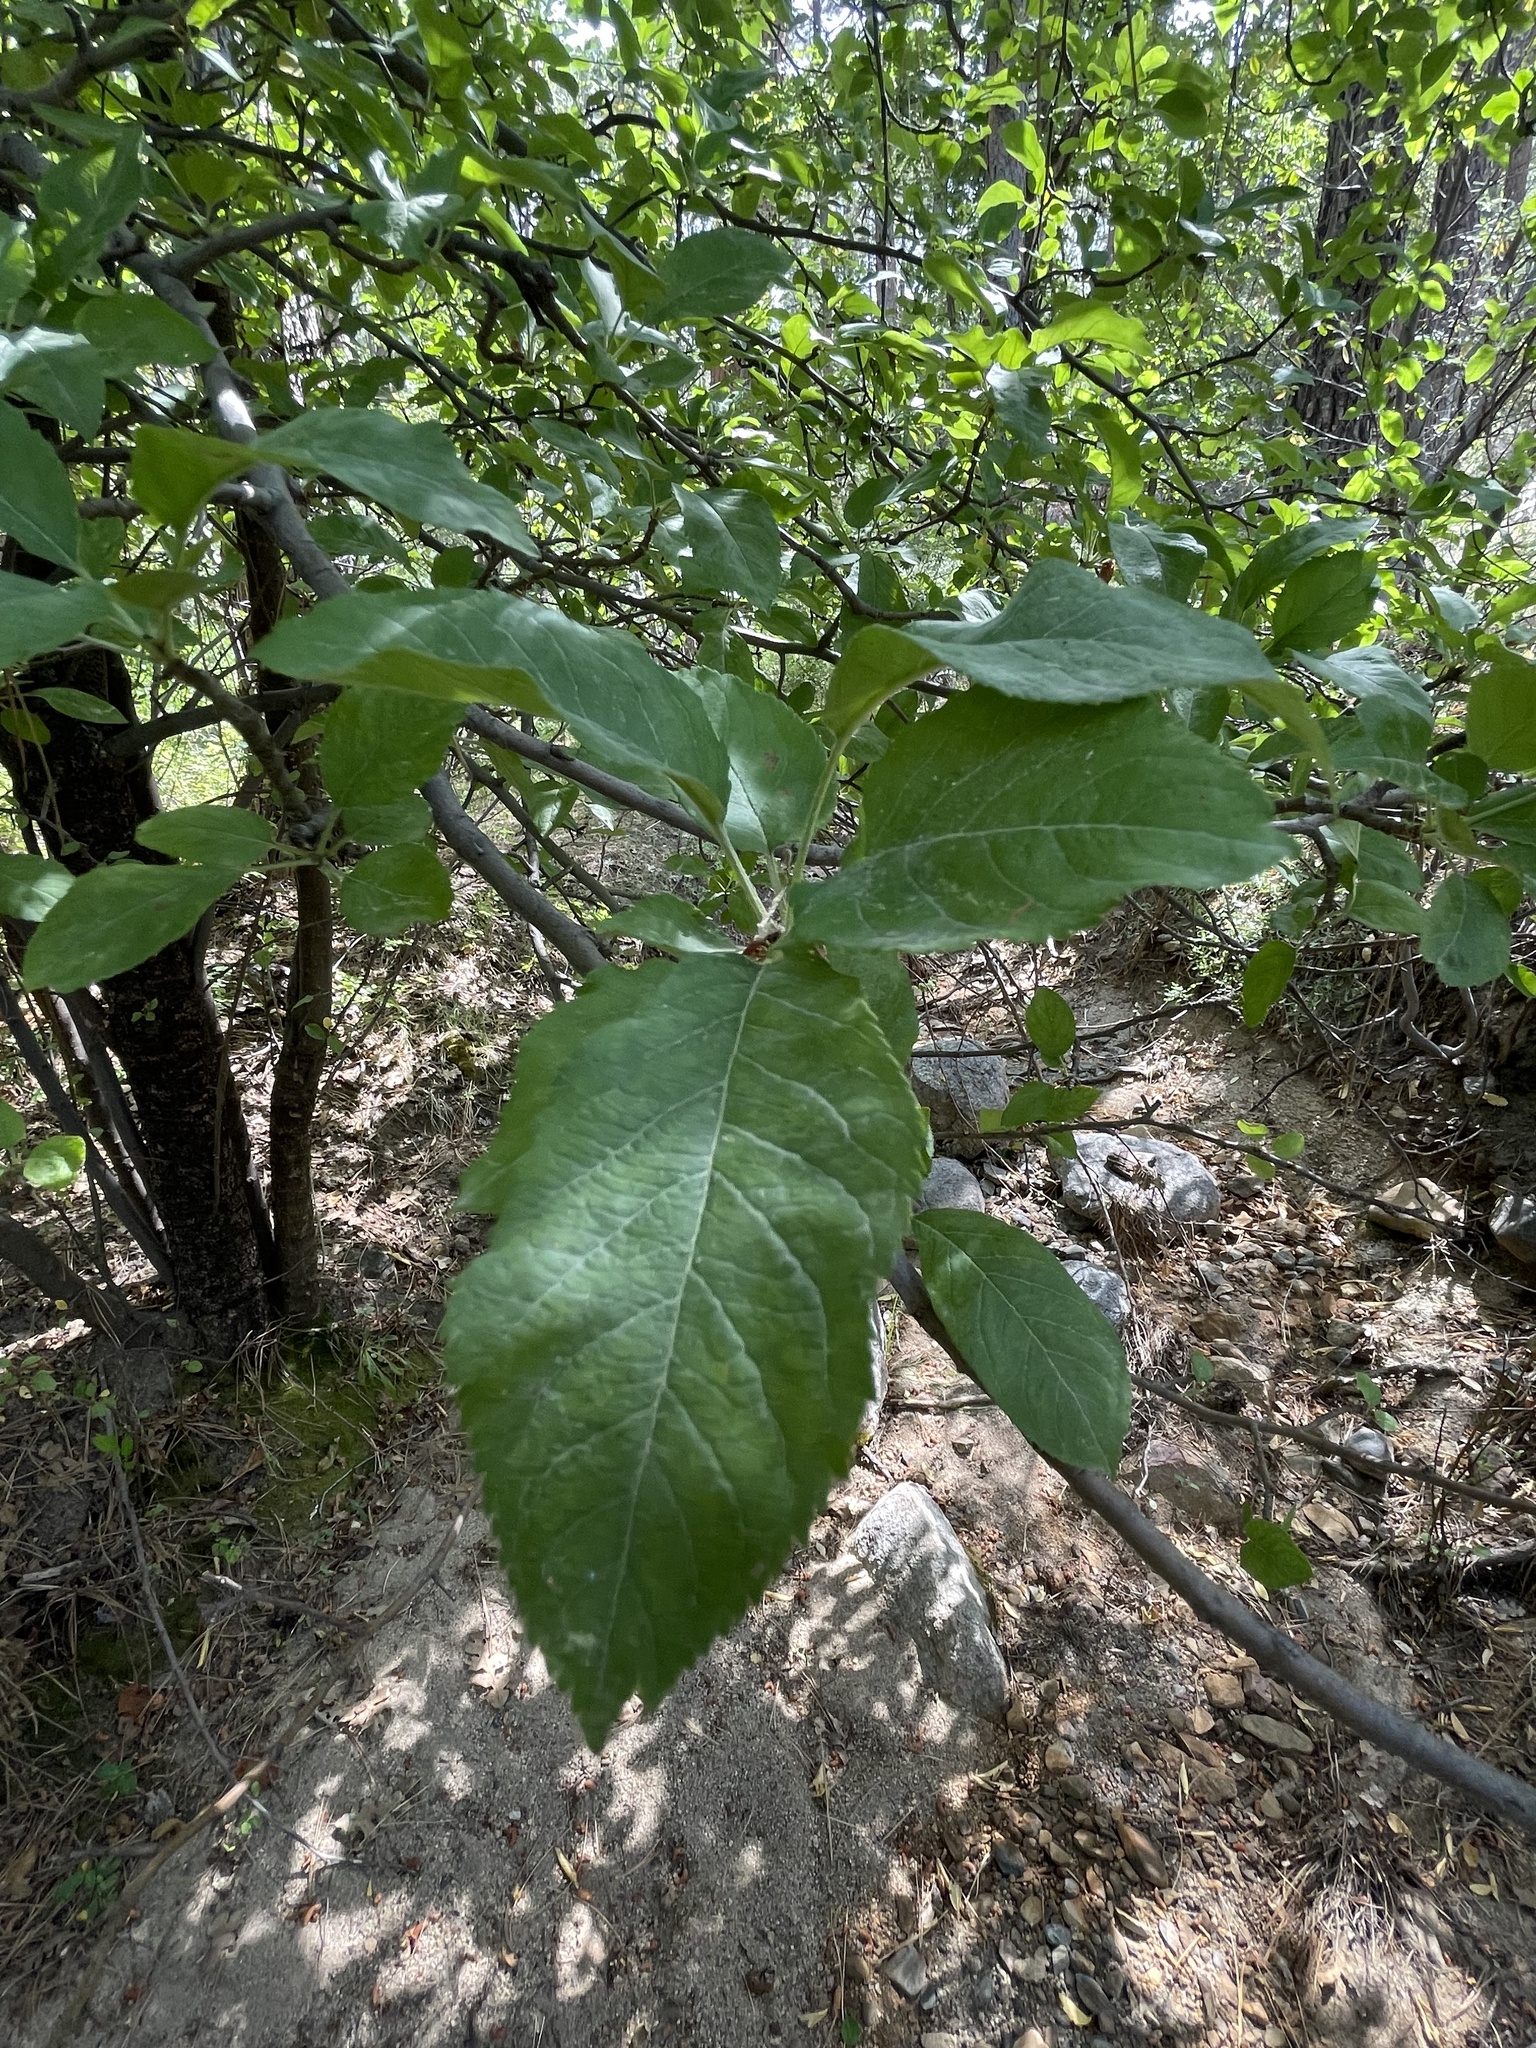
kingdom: Plantae
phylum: Tracheophyta
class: Magnoliopsida
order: Rosales
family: Rosaceae
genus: Malus
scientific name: Malus domestica
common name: Apple
